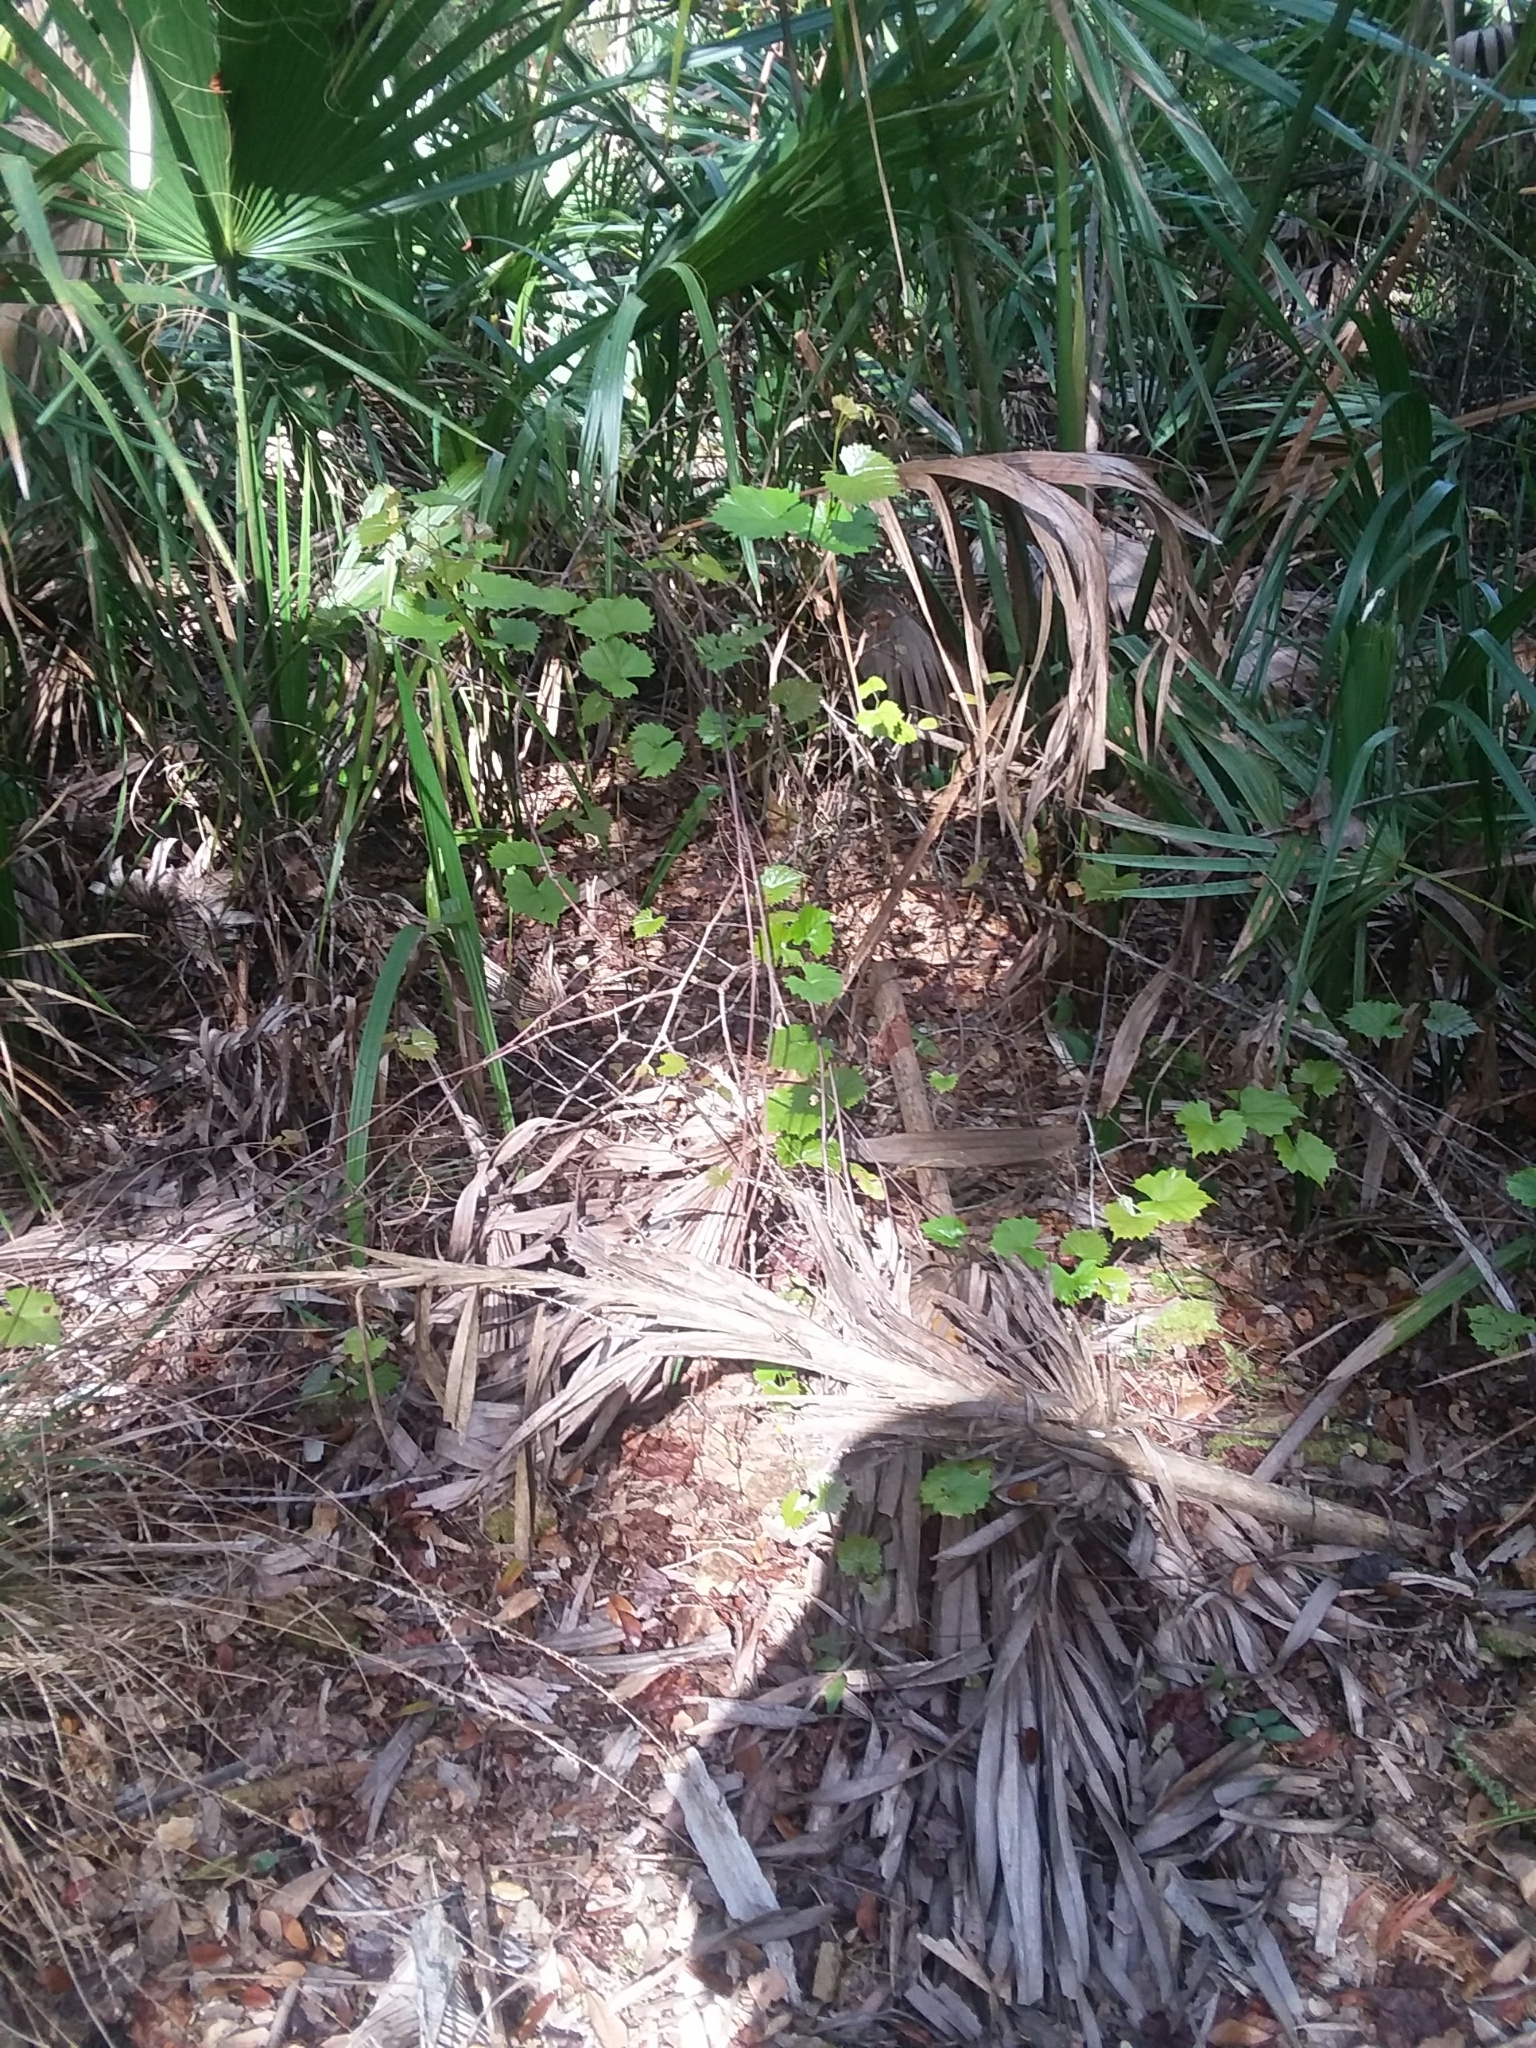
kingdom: Plantae
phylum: Tracheophyta
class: Magnoliopsida
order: Vitales
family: Vitaceae
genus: Vitis
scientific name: Vitis rotundifolia
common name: Muscadine grape
